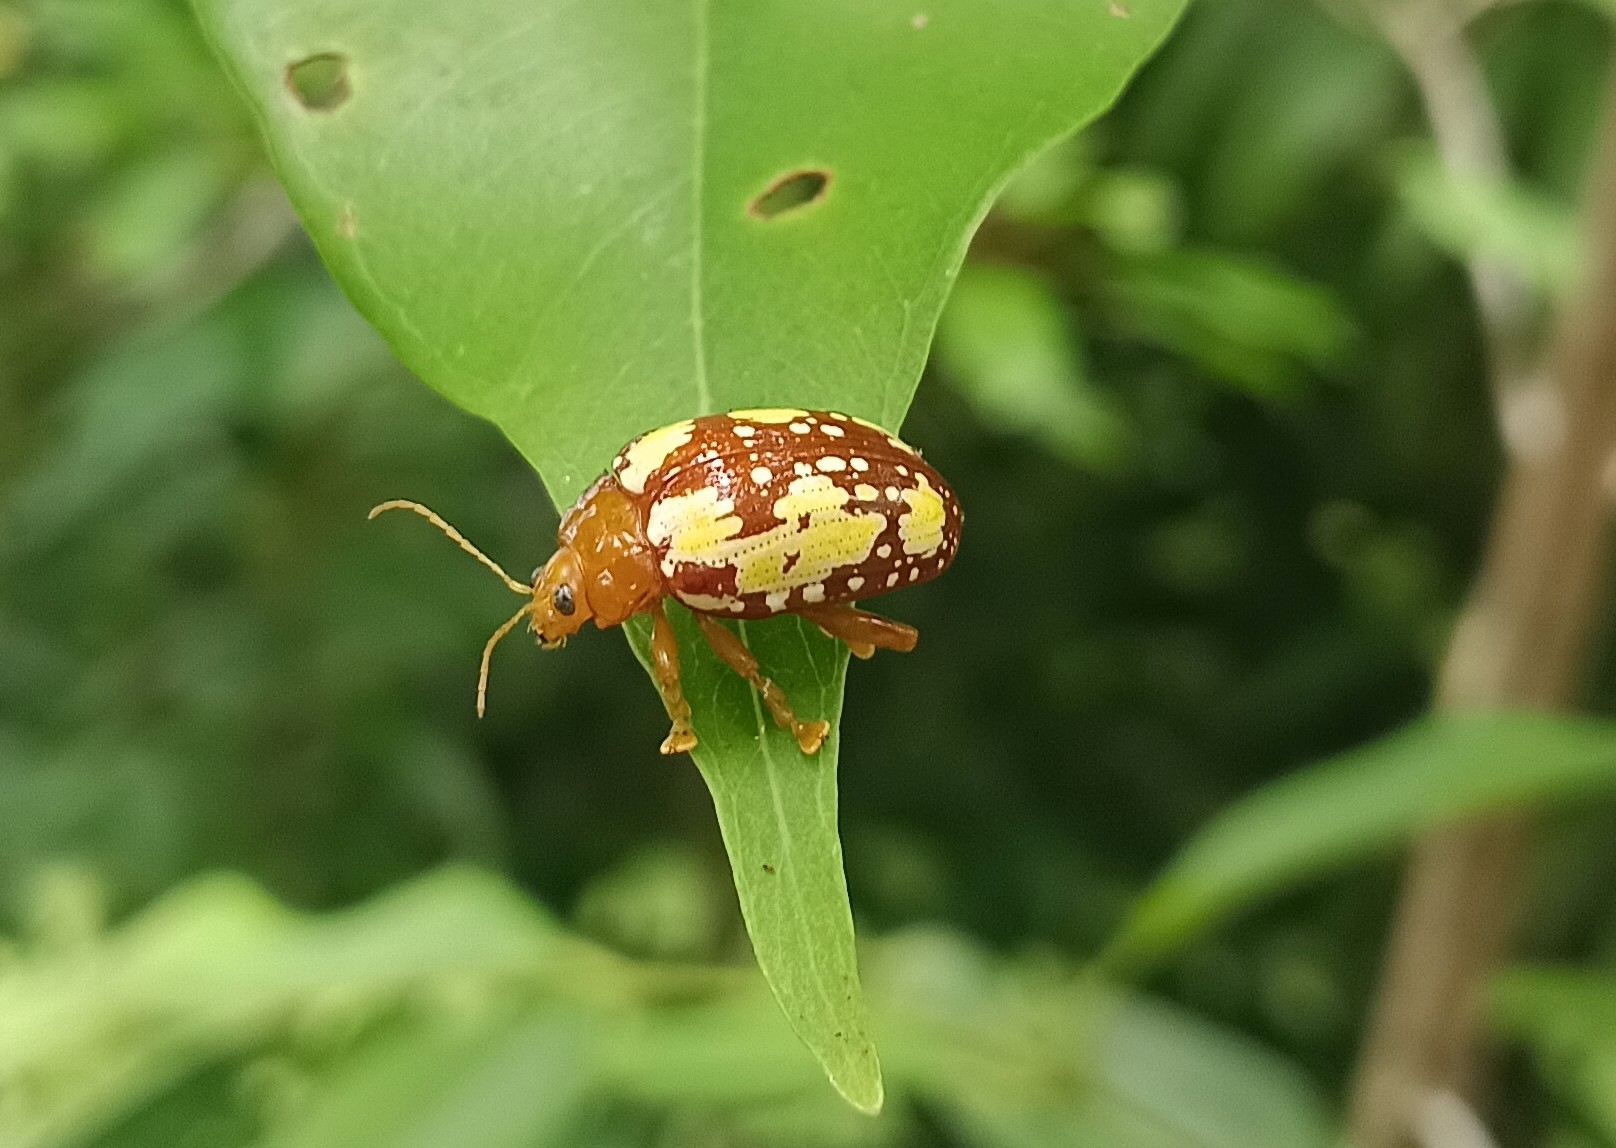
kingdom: Animalia
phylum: Arthropoda
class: Insecta
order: Coleoptera
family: Chrysomelidae
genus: Podontia
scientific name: Podontia
